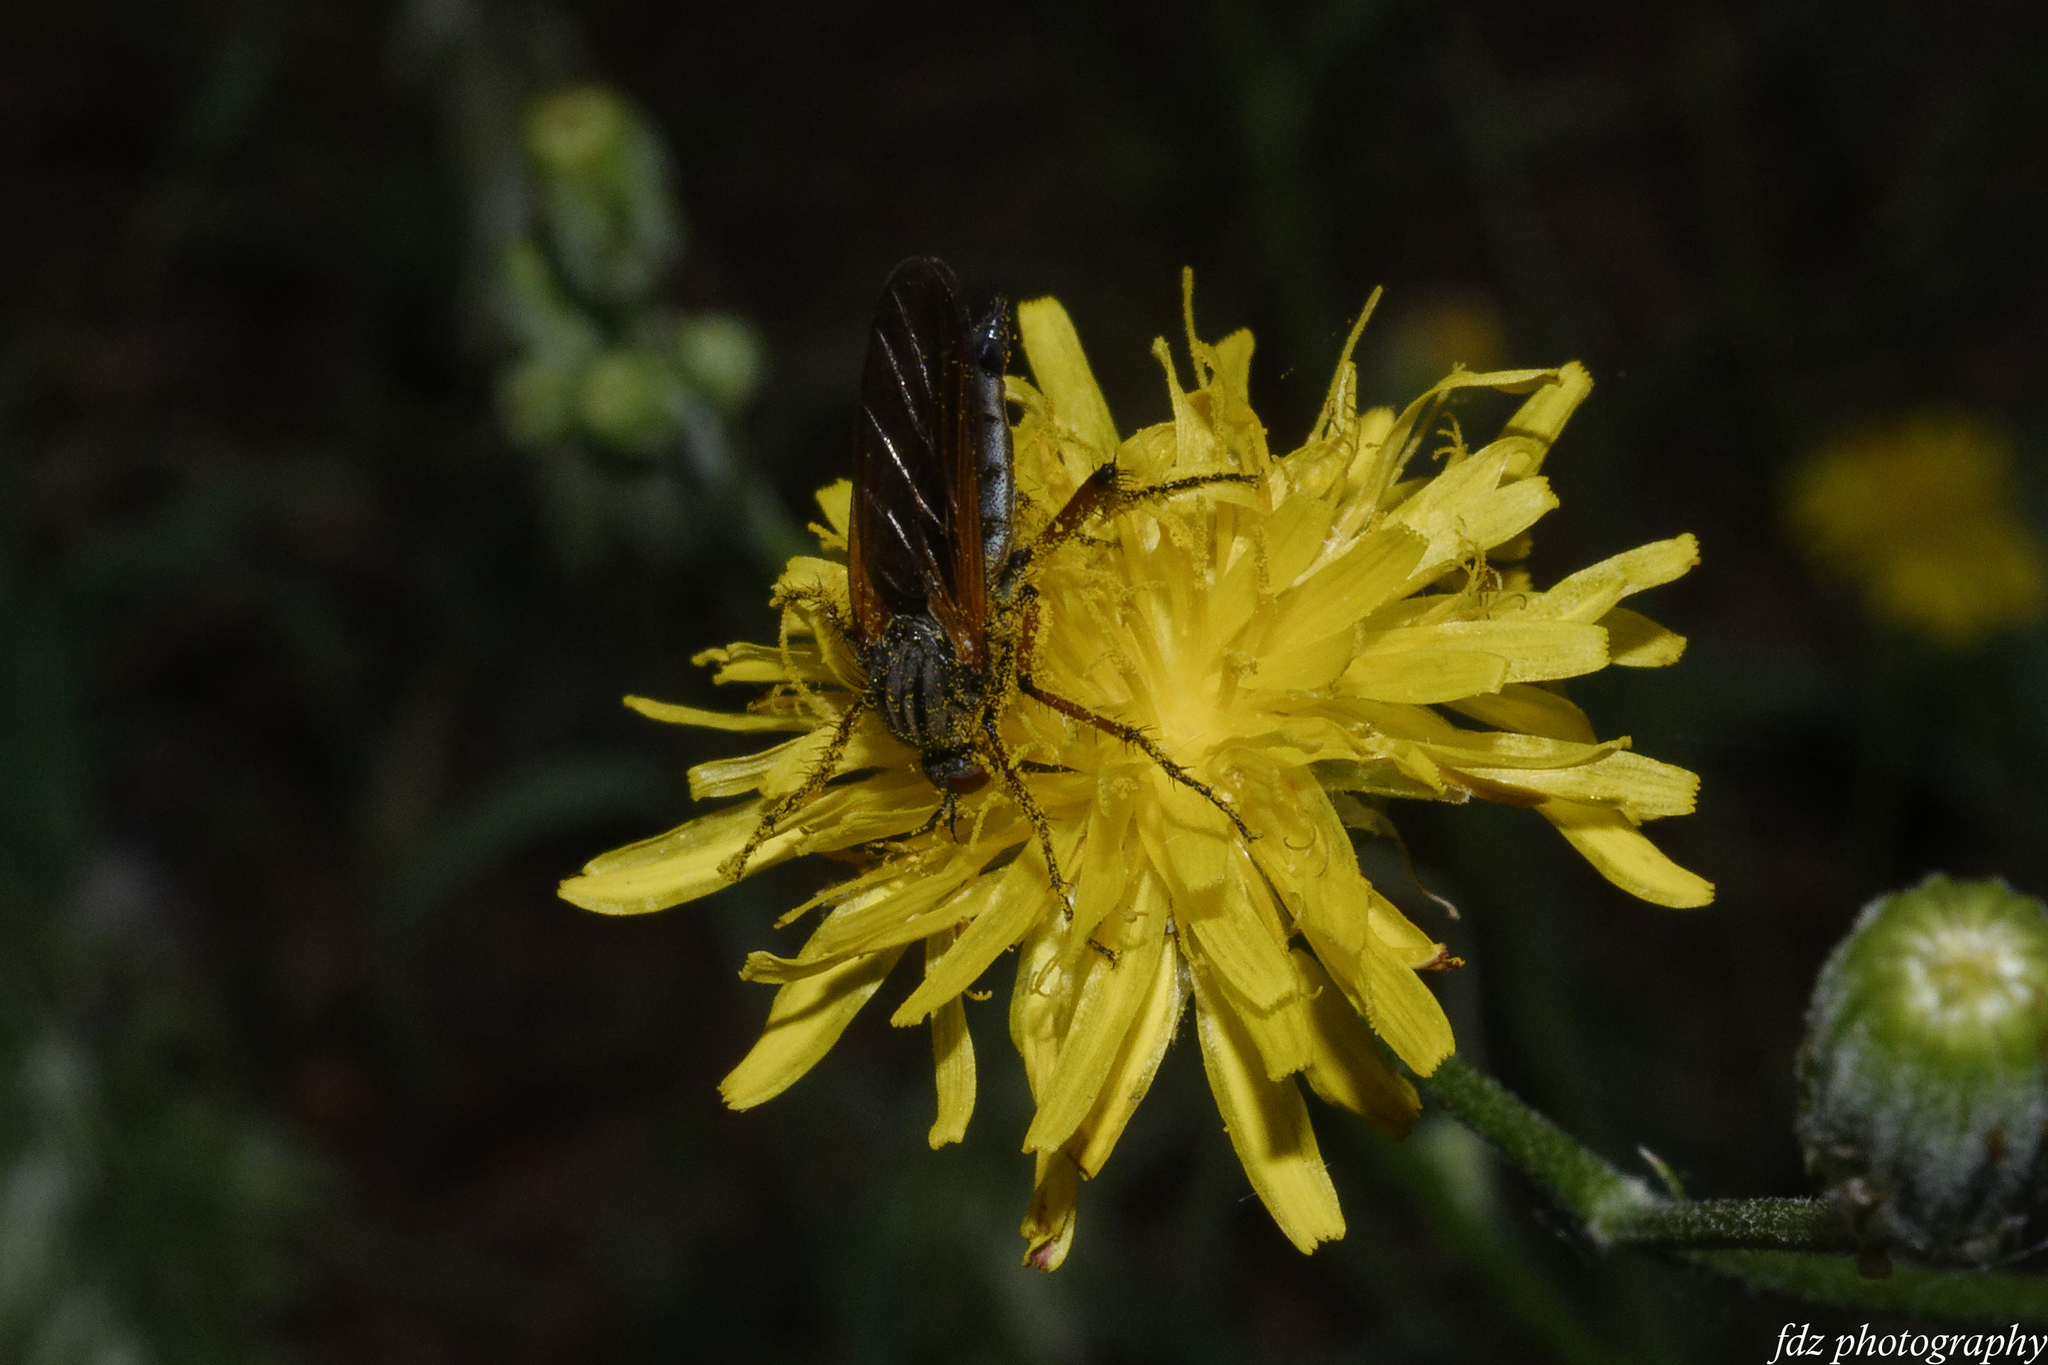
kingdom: Animalia
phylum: Arthropoda
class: Insecta
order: Diptera
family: Empididae
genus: Empis
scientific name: Empis tessellata
